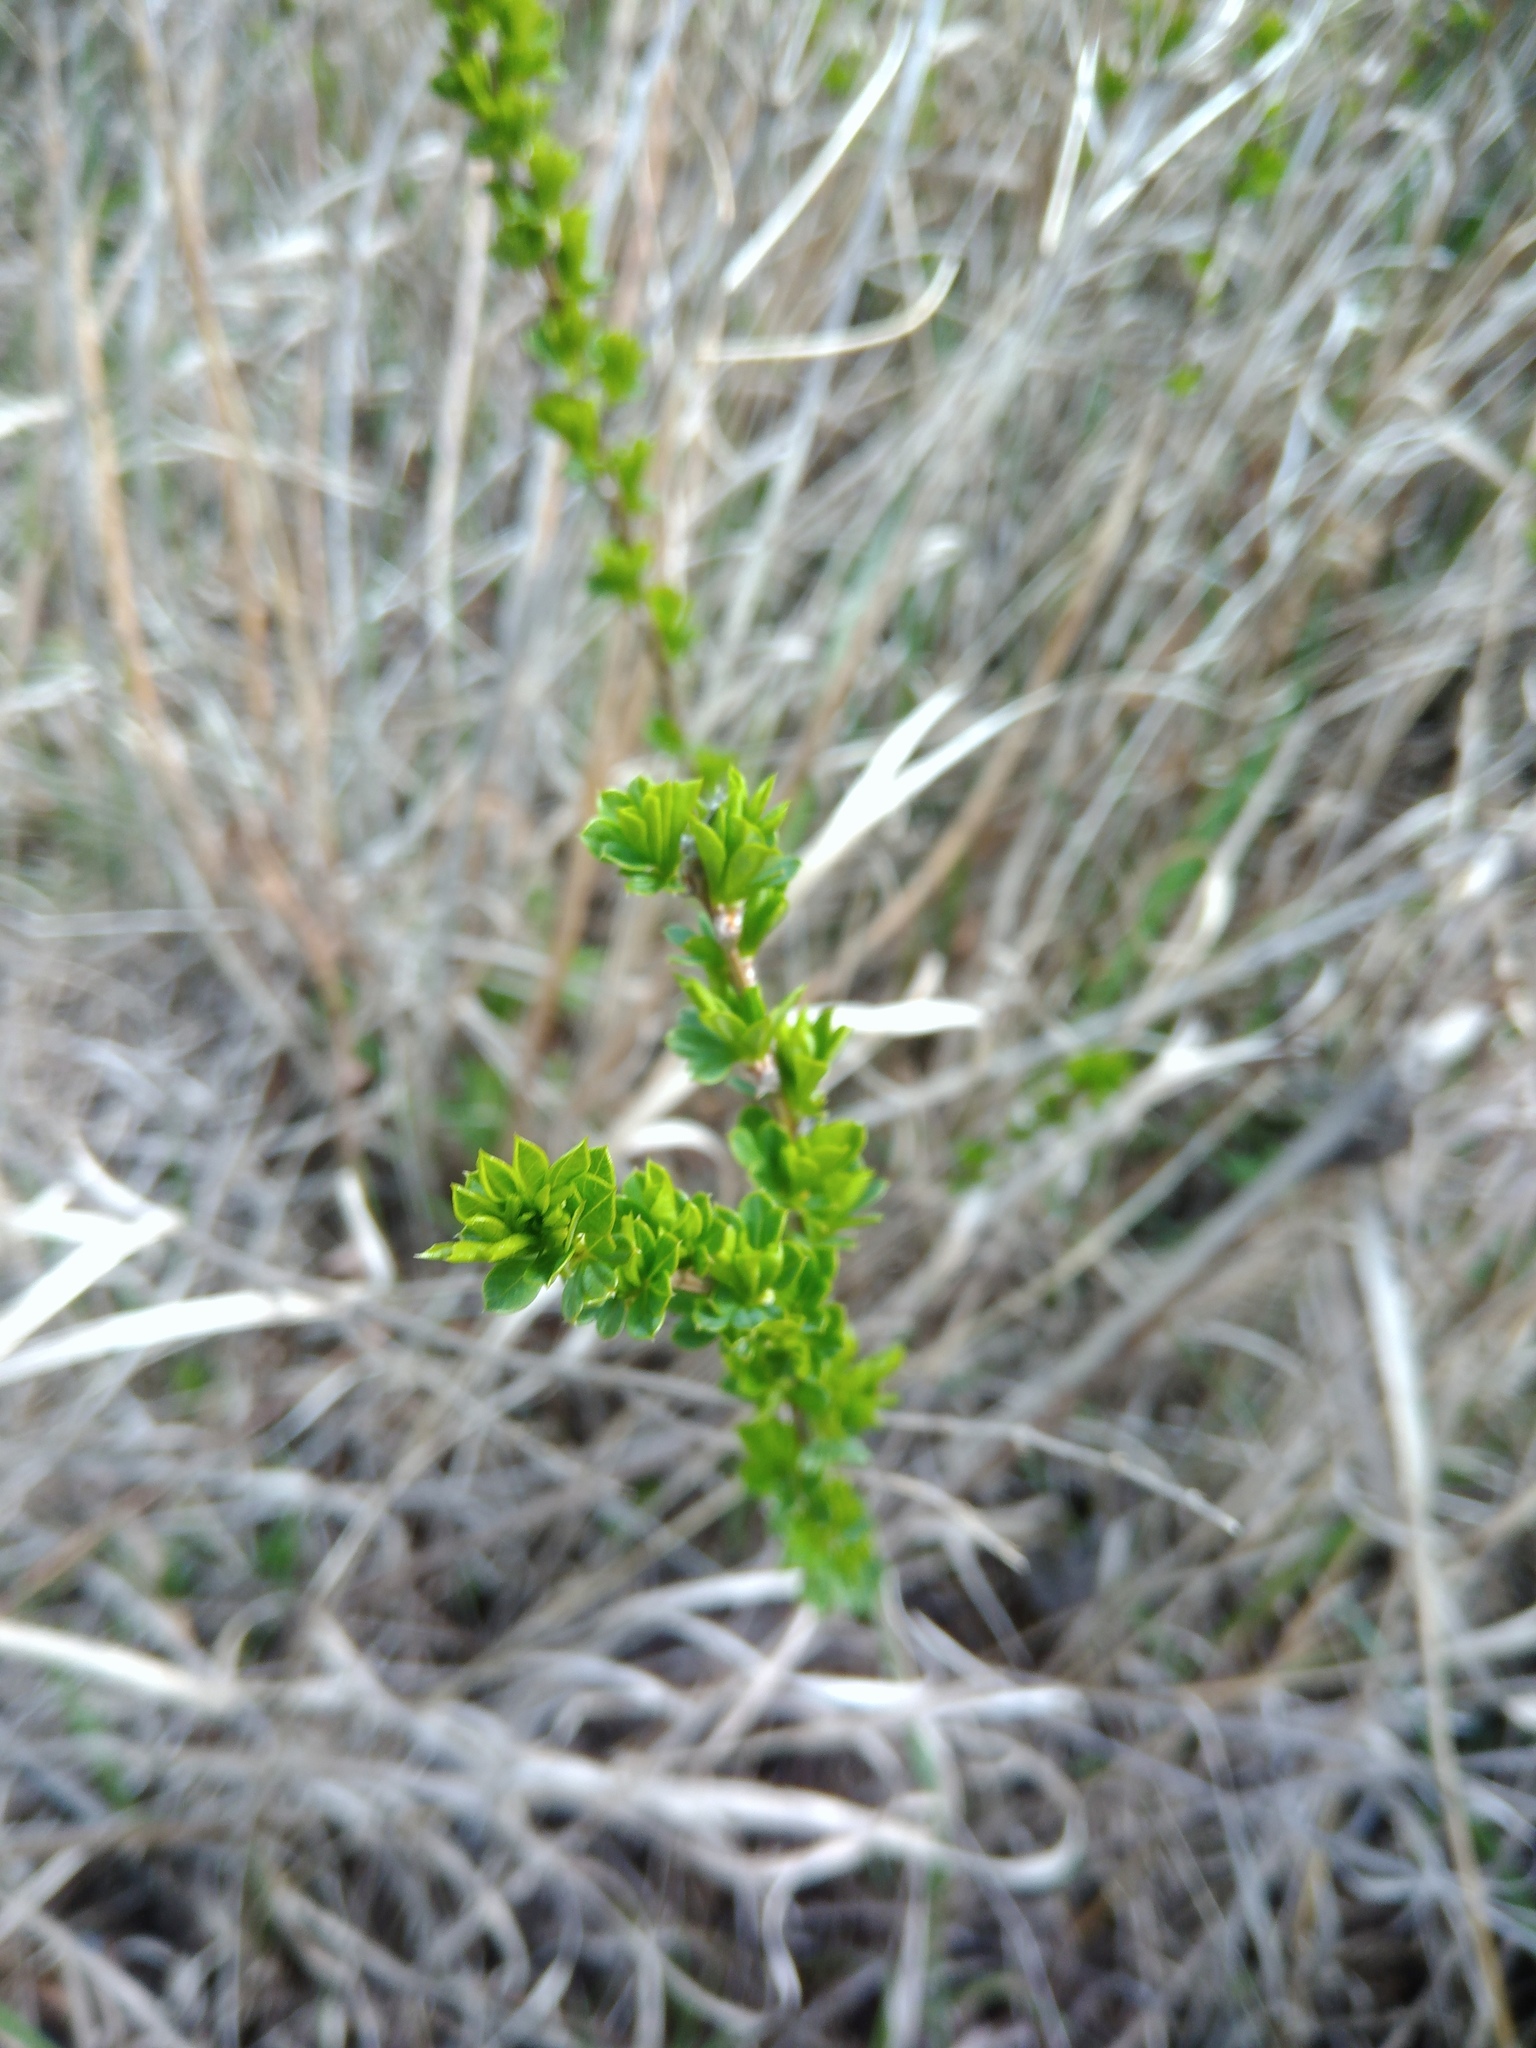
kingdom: Plantae
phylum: Tracheophyta
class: Magnoliopsida
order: Fabales
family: Fabaceae
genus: Caragana
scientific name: Caragana frutex
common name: Russian peashrub
